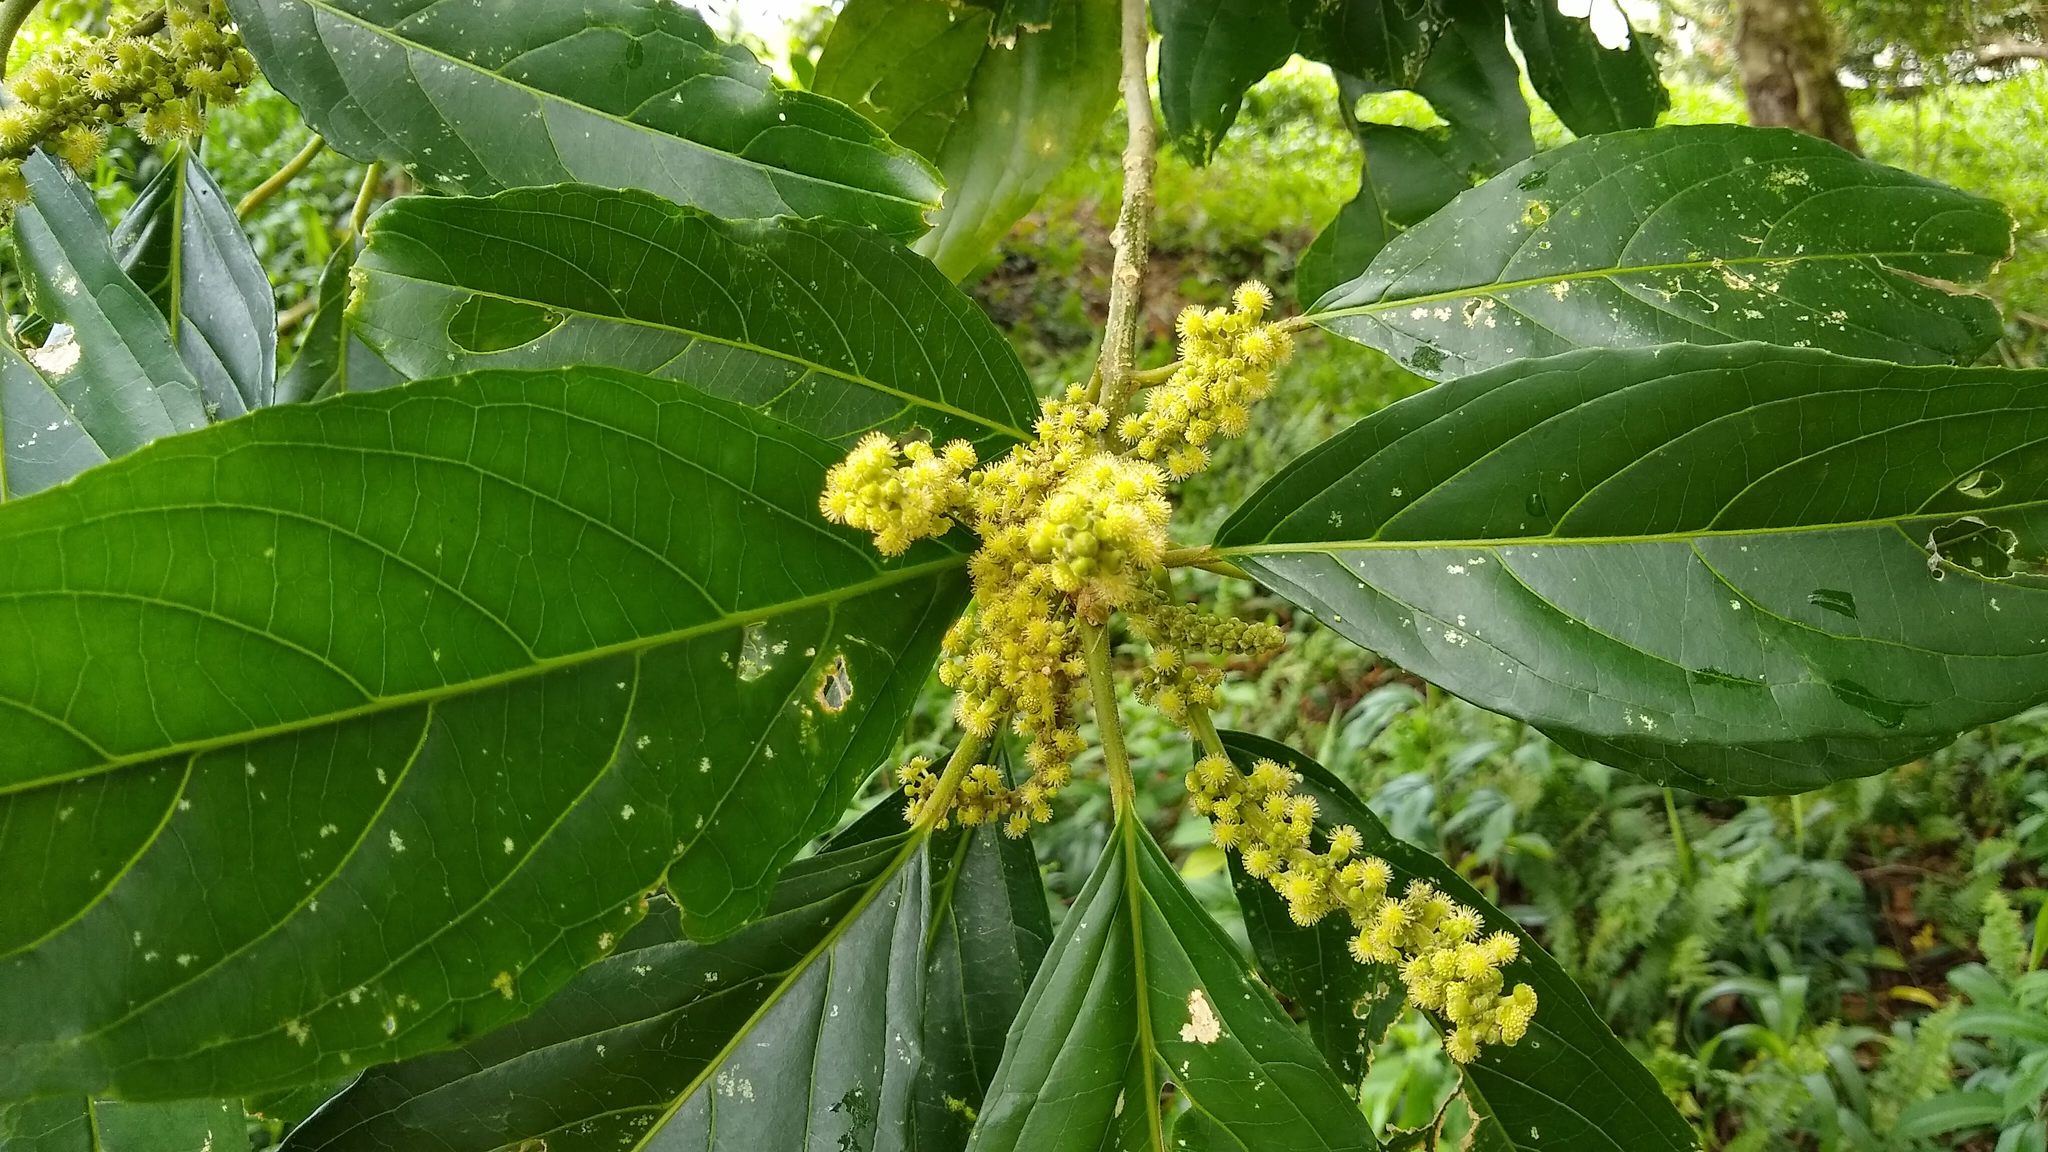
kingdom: Plantae
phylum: Tracheophyta
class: Magnoliopsida
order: Malpighiales
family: Euphorbiaceae
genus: Claoxylon
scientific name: Claoxylon carolinianum
